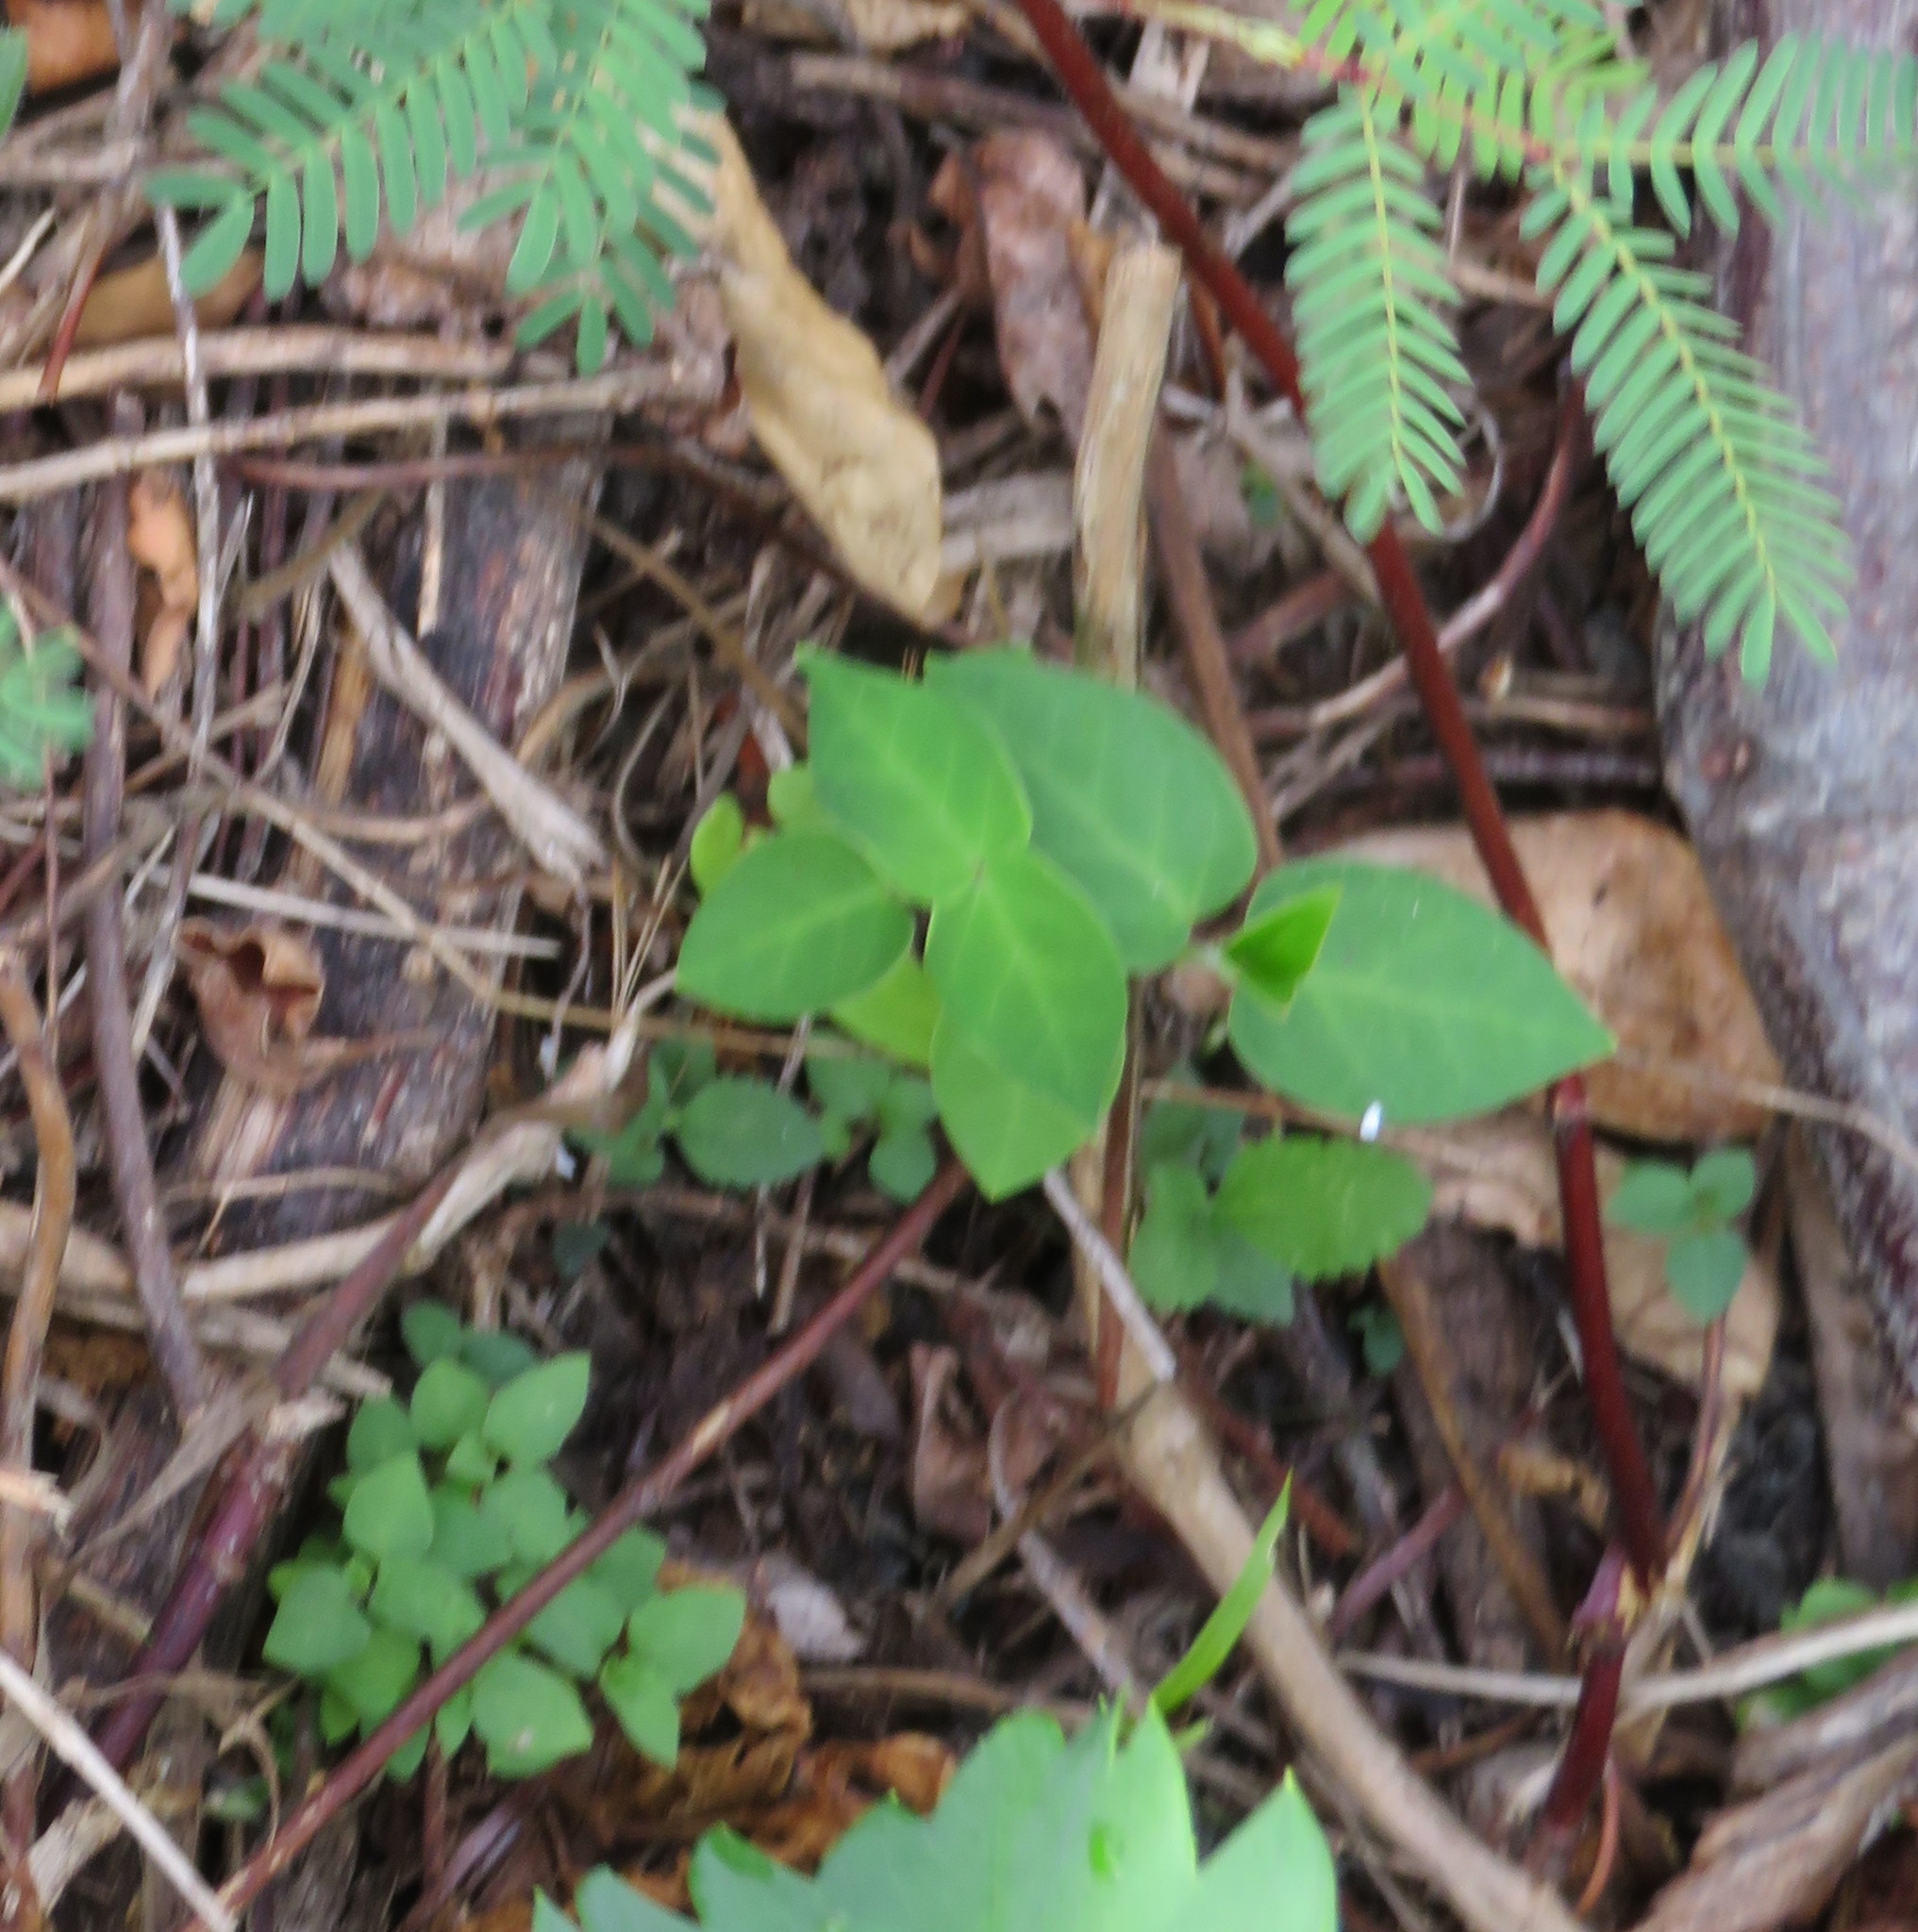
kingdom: Plantae
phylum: Tracheophyta
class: Magnoliopsida
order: Gentianales
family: Apocynaceae
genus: Araujia
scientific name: Araujia sericifera
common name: White bladderflower
